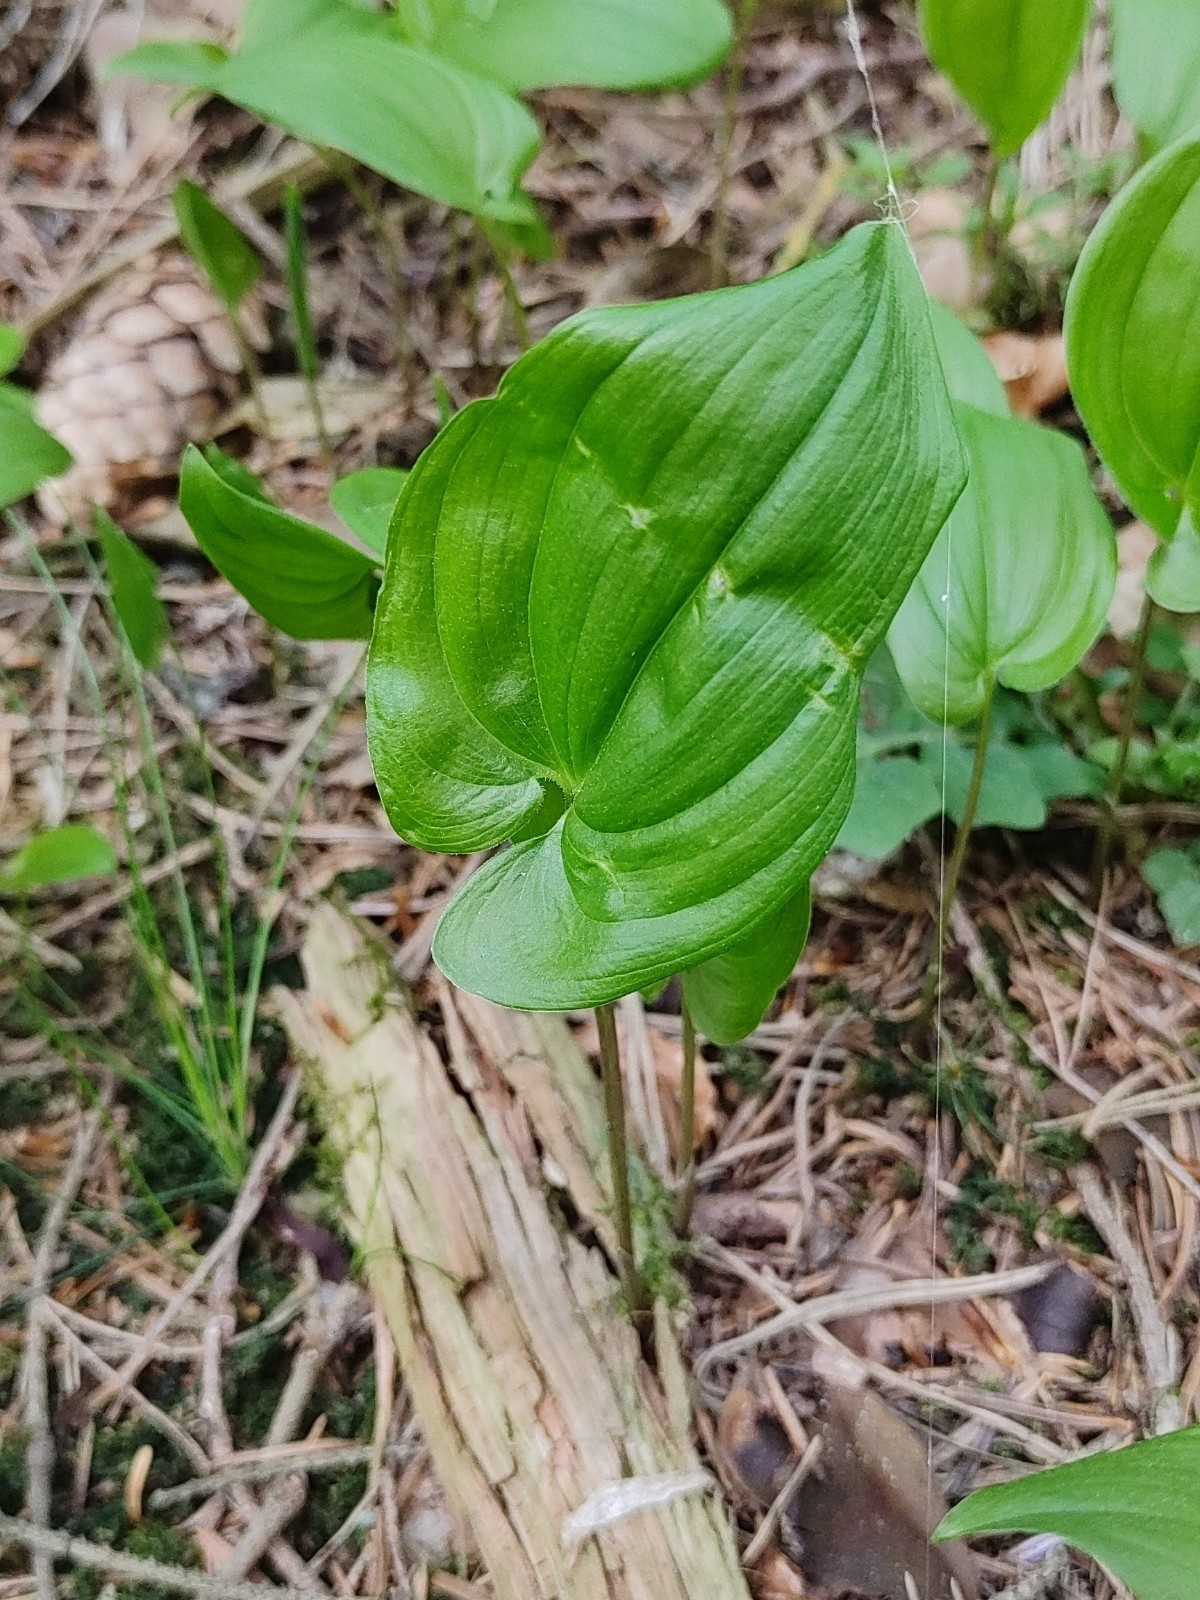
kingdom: Plantae
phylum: Tracheophyta
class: Liliopsida
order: Asparagales
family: Asparagaceae
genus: Maianthemum
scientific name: Maianthemum bifolium
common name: May lily
